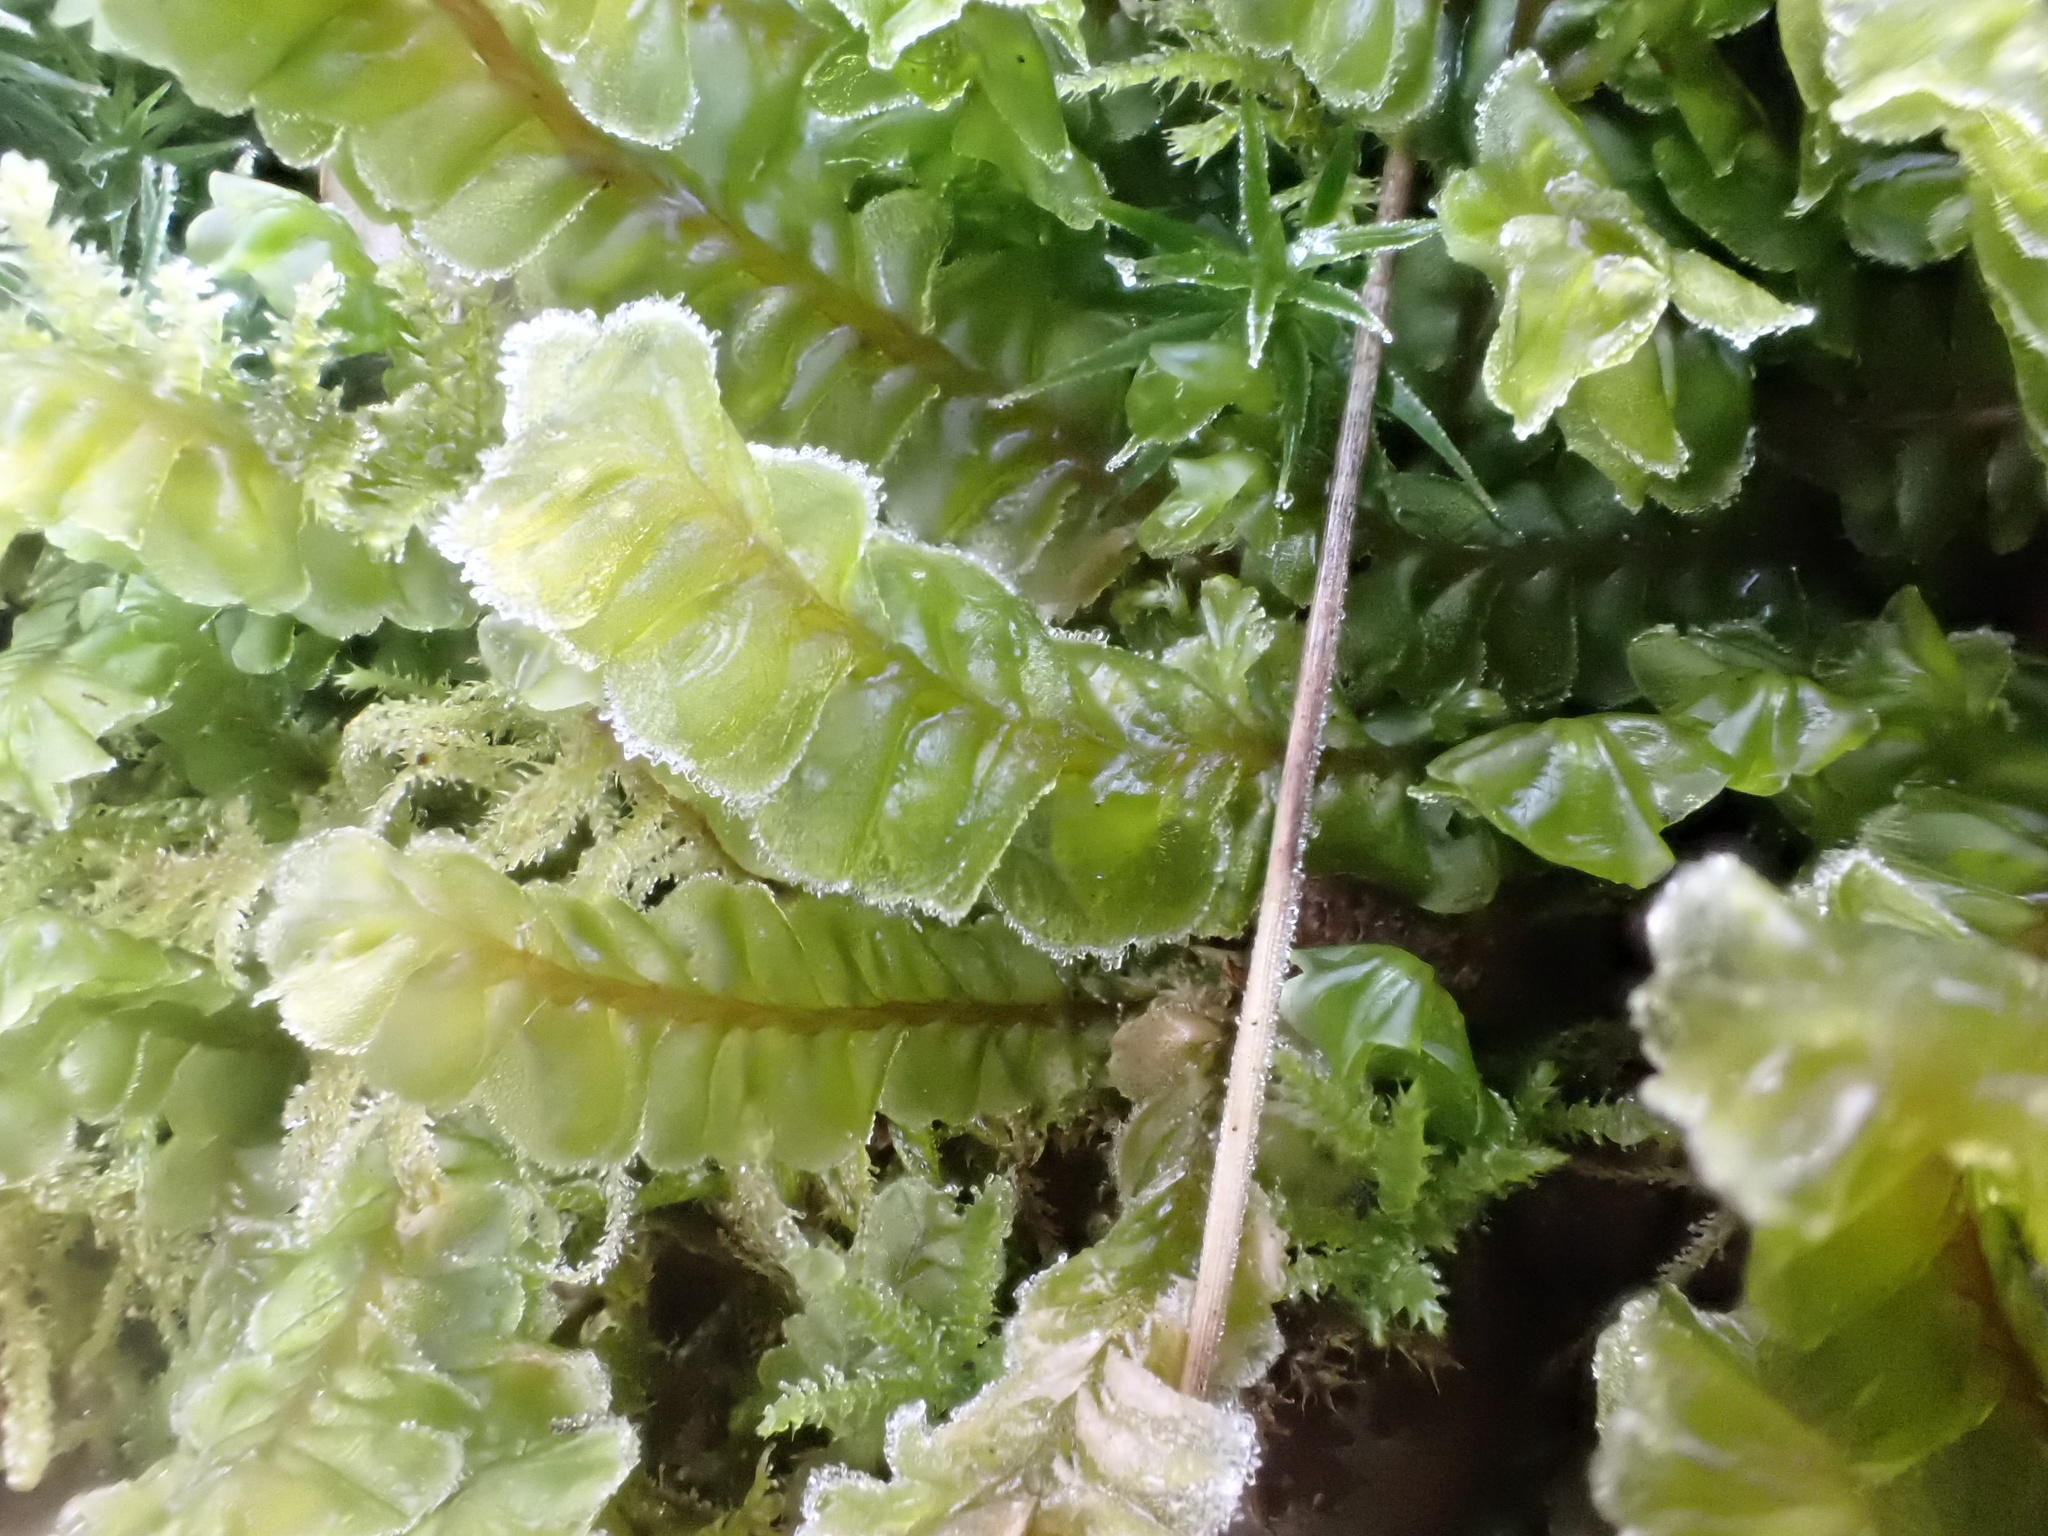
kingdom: Plantae
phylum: Marchantiophyta
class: Jungermanniopsida
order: Jungermanniales
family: Plagiochilaceae
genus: Plagiochila
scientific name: Plagiochila asplenioides
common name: Greater featherwort
